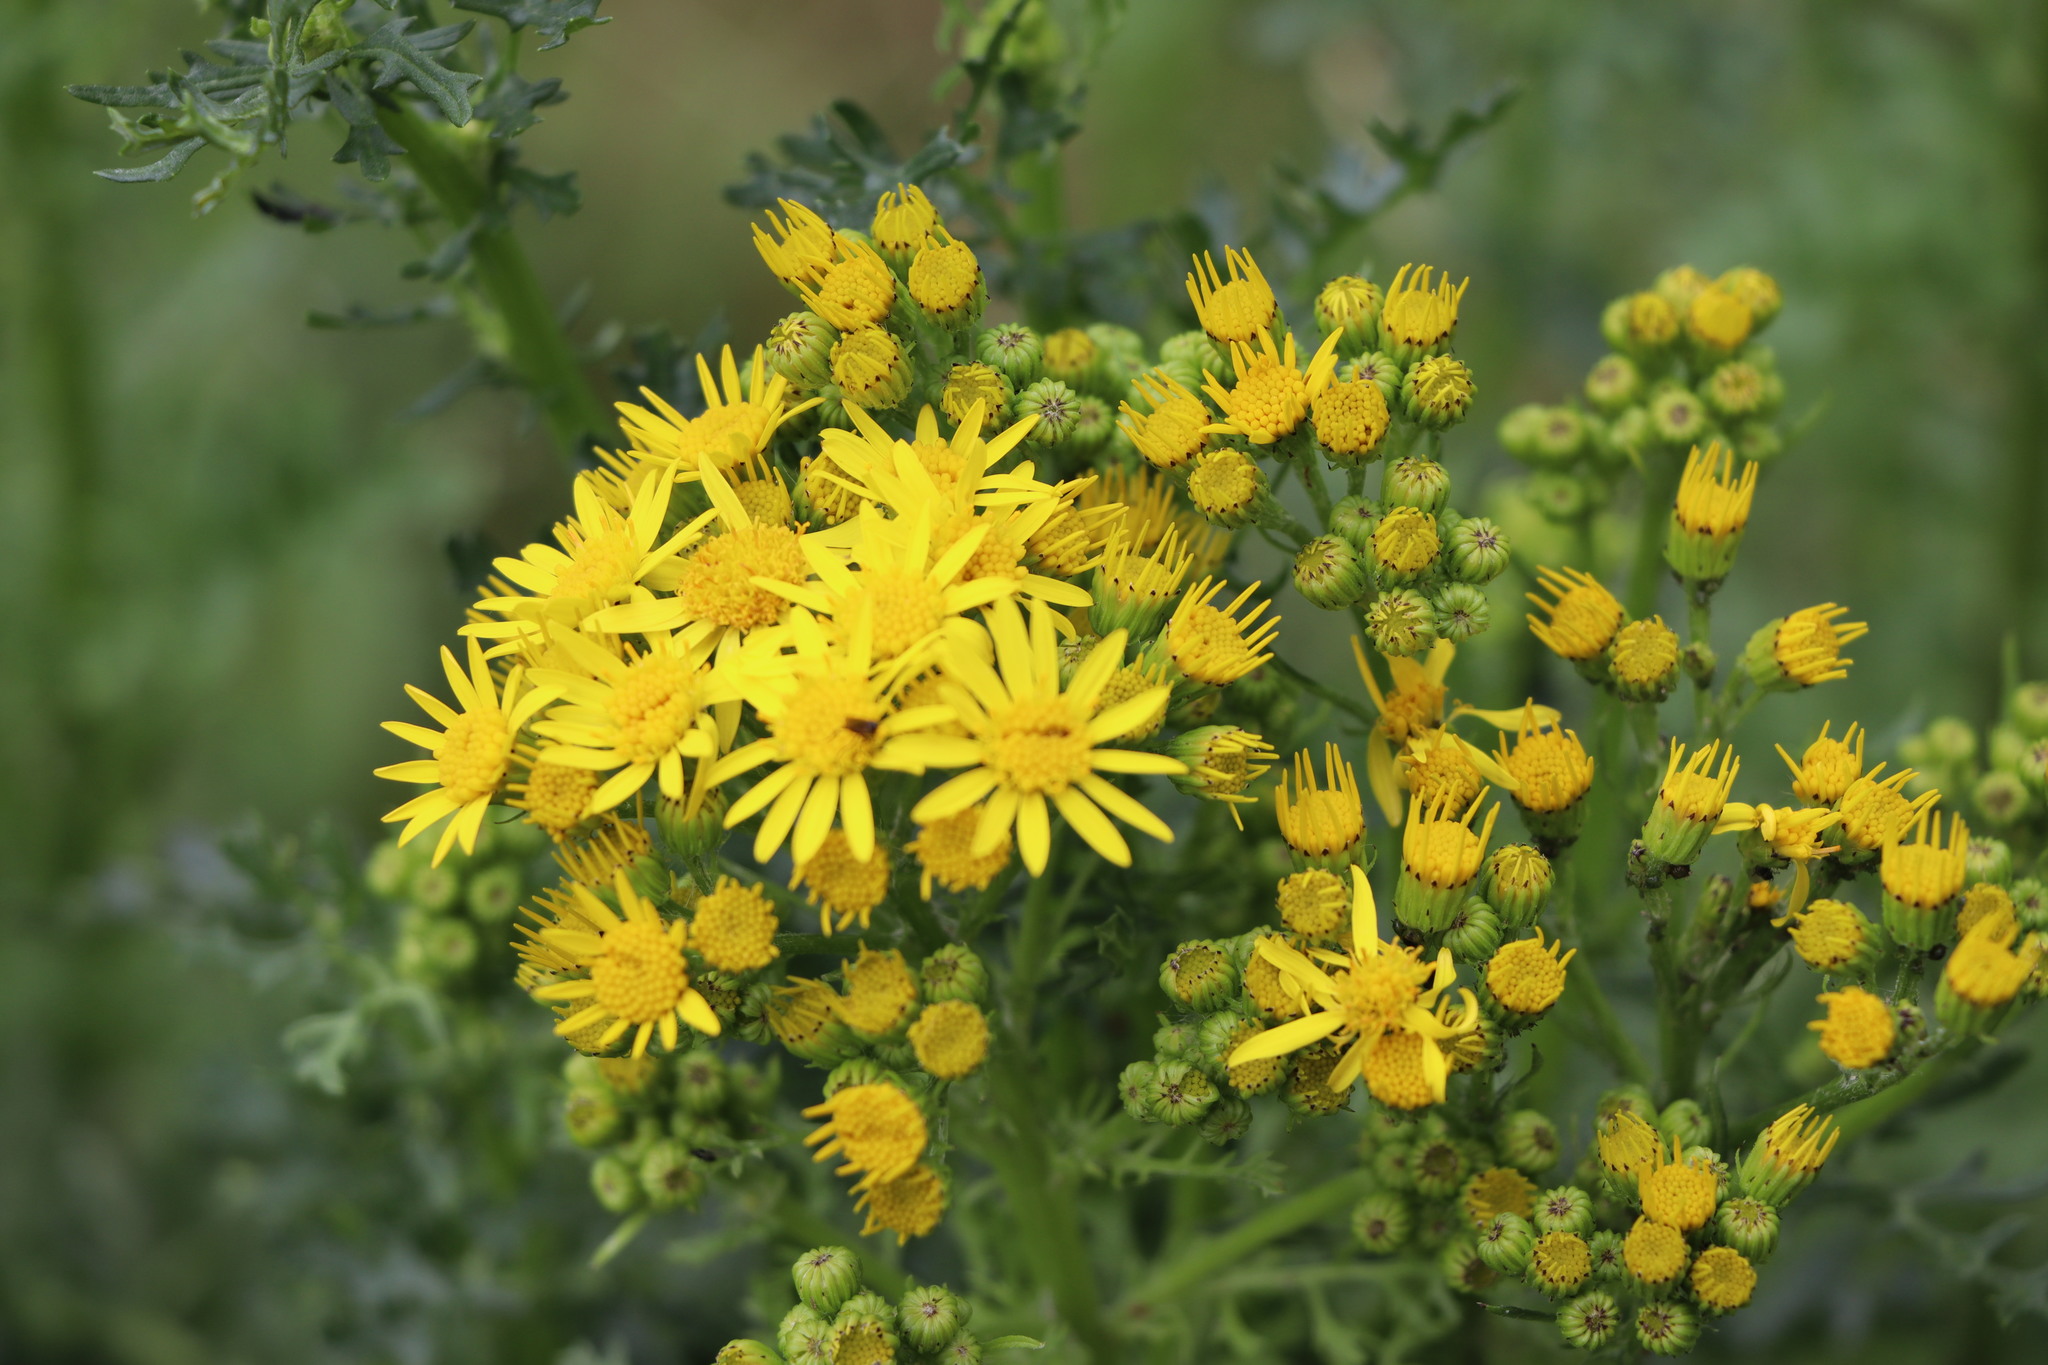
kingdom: Plantae
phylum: Tracheophyta
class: Magnoliopsida
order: Asterales
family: Asteraceae
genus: Jacobaea
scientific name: Jacobaea vulgaris
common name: Stinking willie
